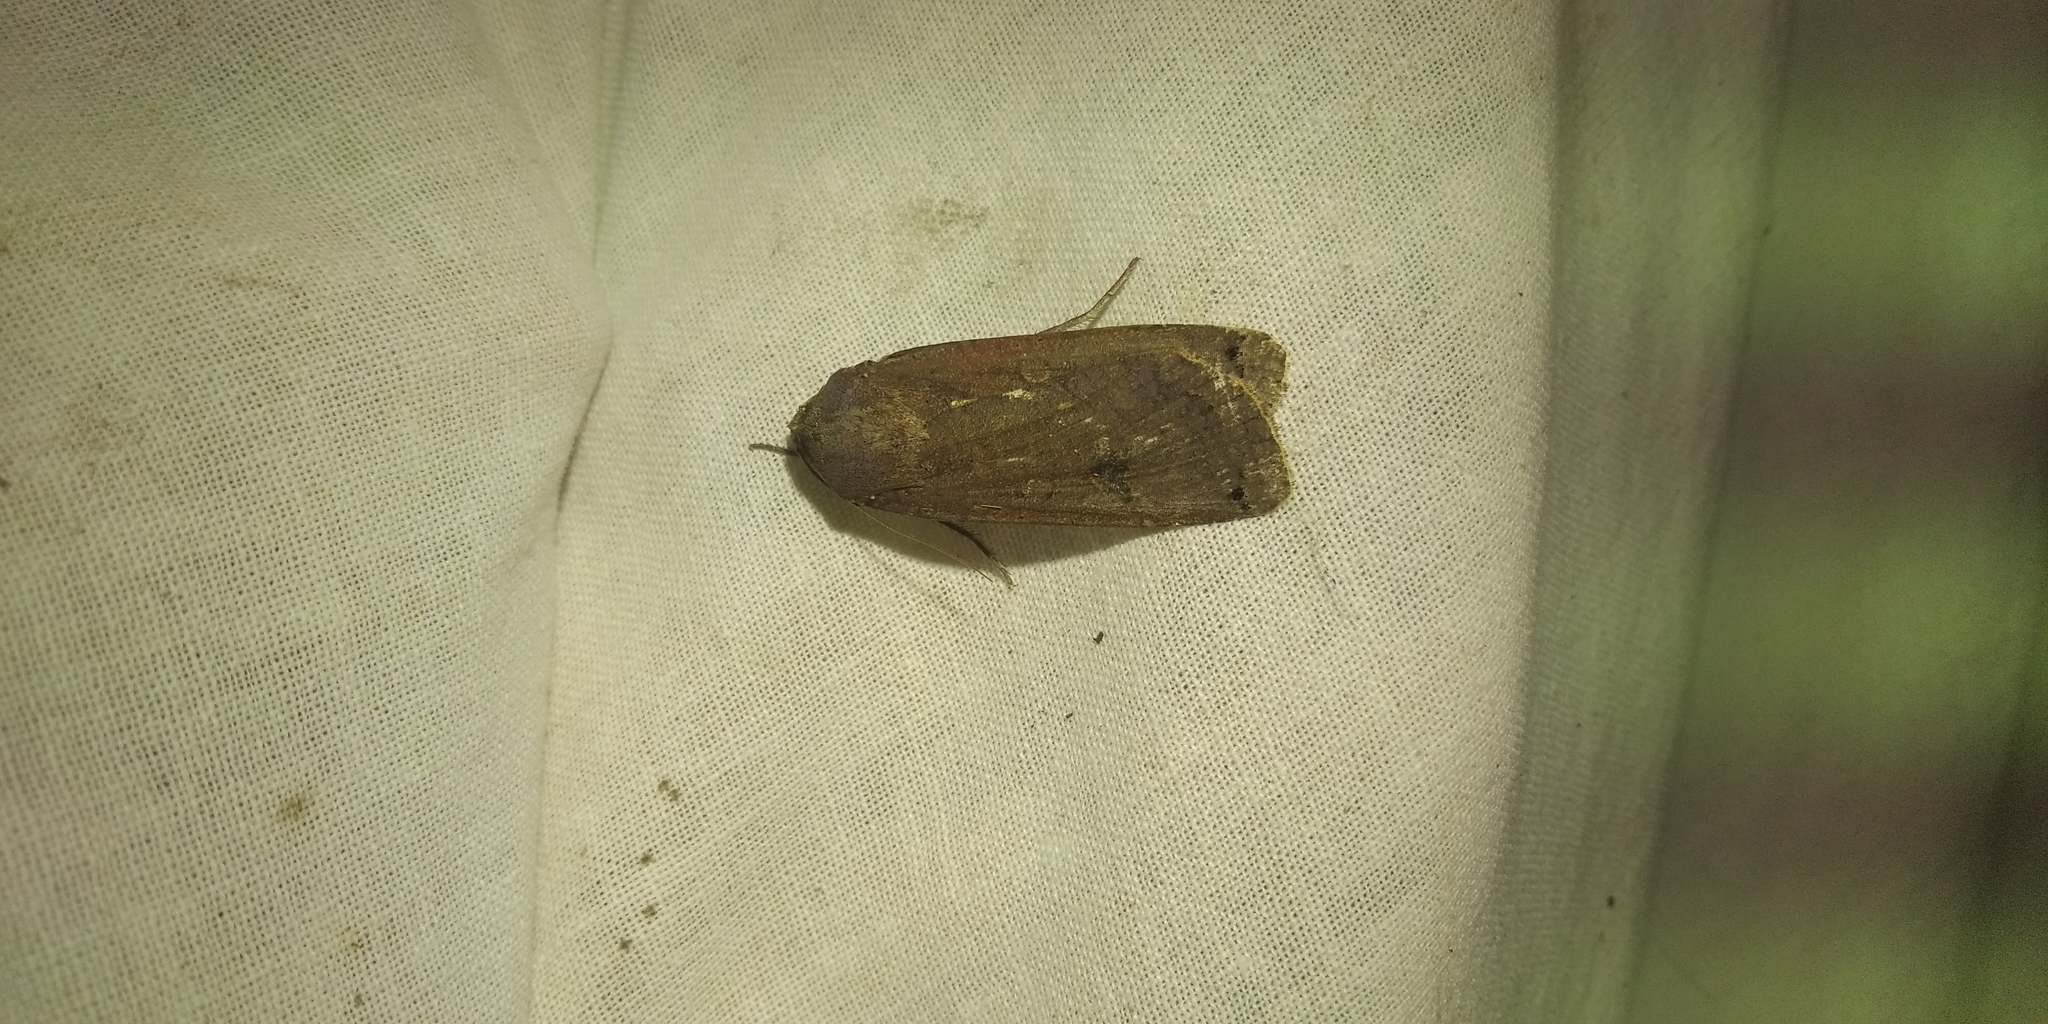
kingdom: Animalia
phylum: Arthropoda
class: Insecta
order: Lepidoptera
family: Noctuidae
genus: Noctua
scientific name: Noctua pronuba
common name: Large yellow underwing
